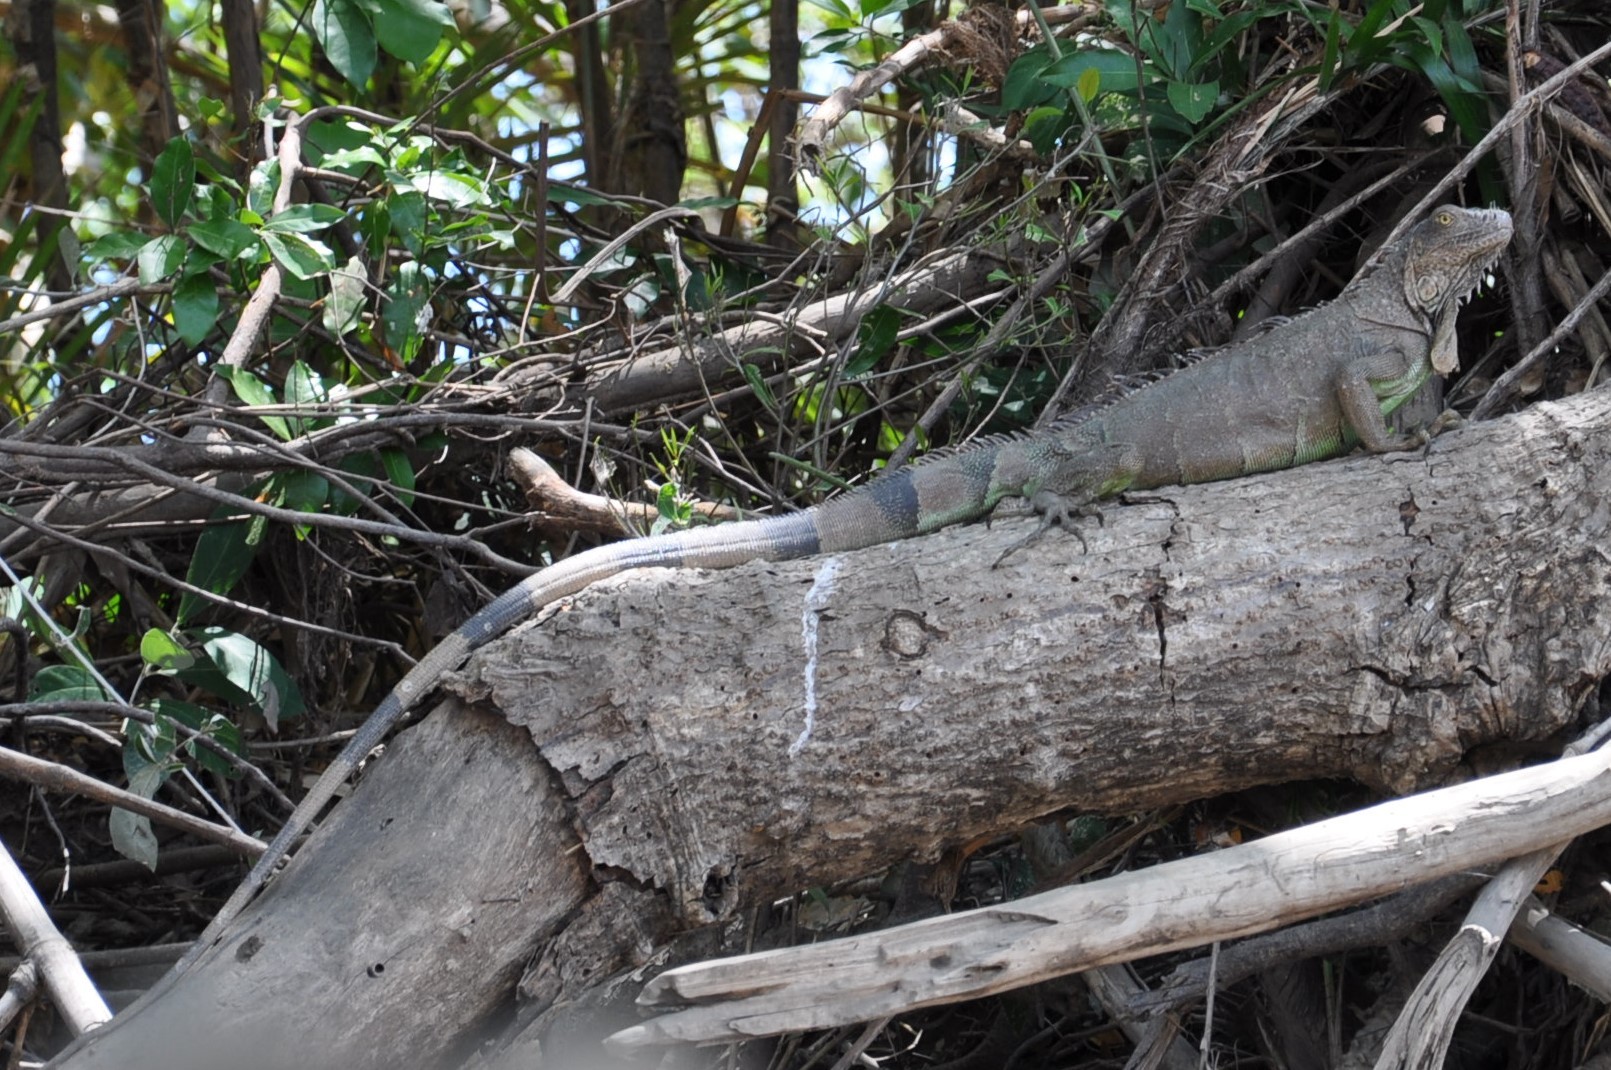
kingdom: Animalia
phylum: Chordata
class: Squamata
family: Iguanidae
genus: Iguana
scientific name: Iguana iguana
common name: Green iguana
